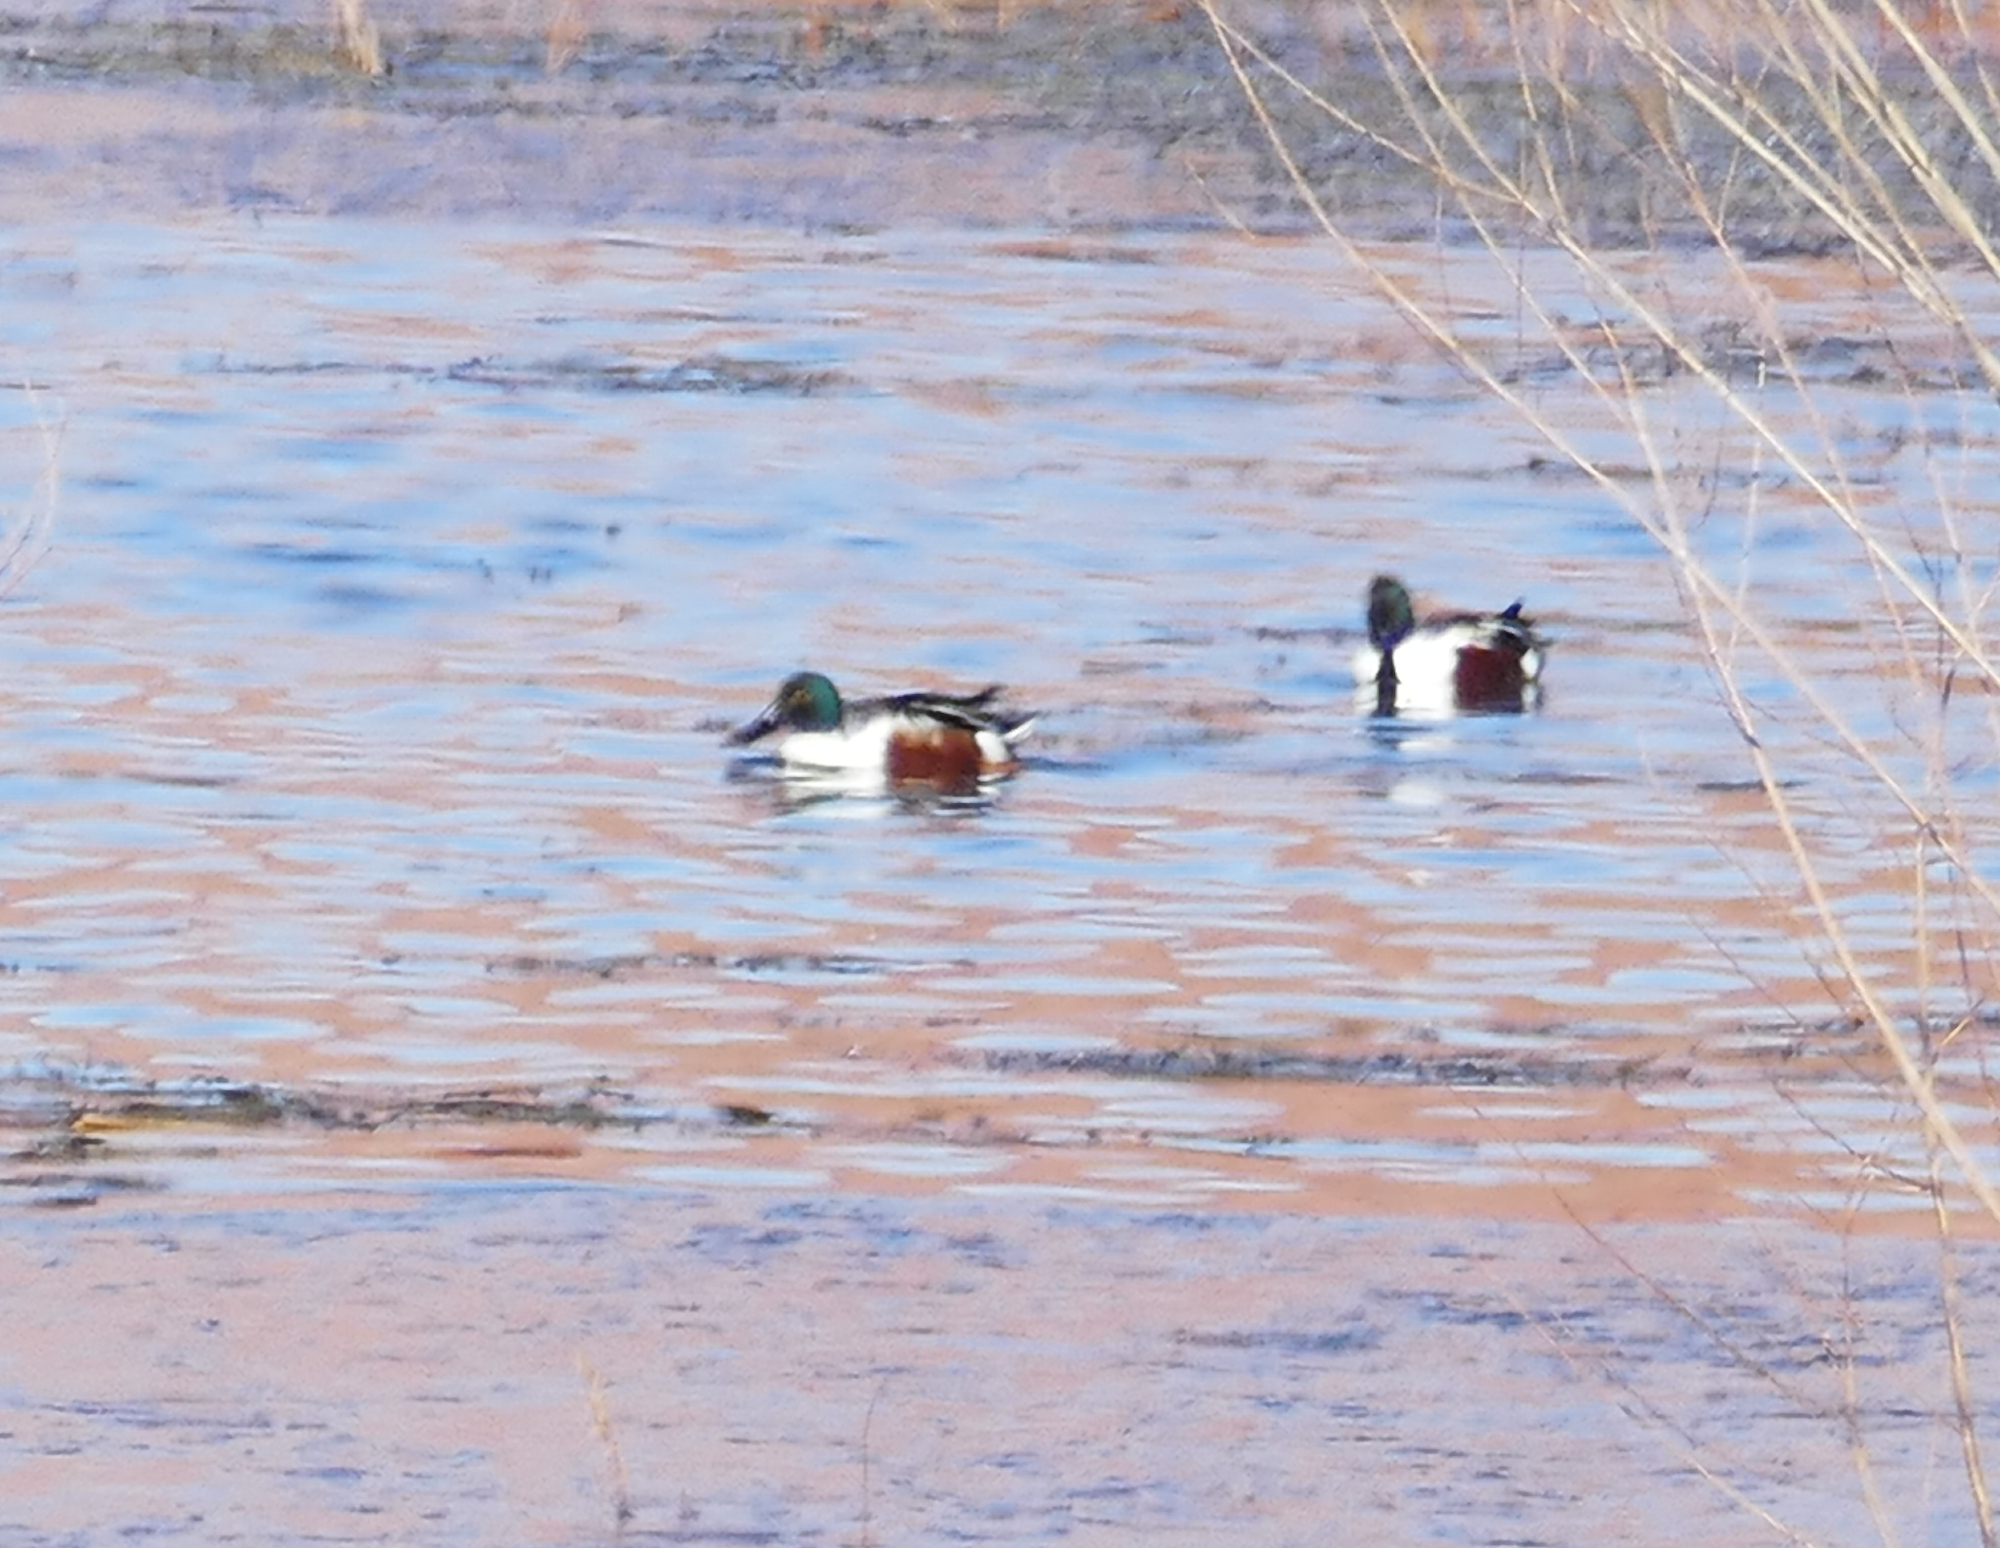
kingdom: Animalia
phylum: Chordata
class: Aves
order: Anseriformes
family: Anatidae
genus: Spatula
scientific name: Spatula clypeata
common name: Northern shoveler
